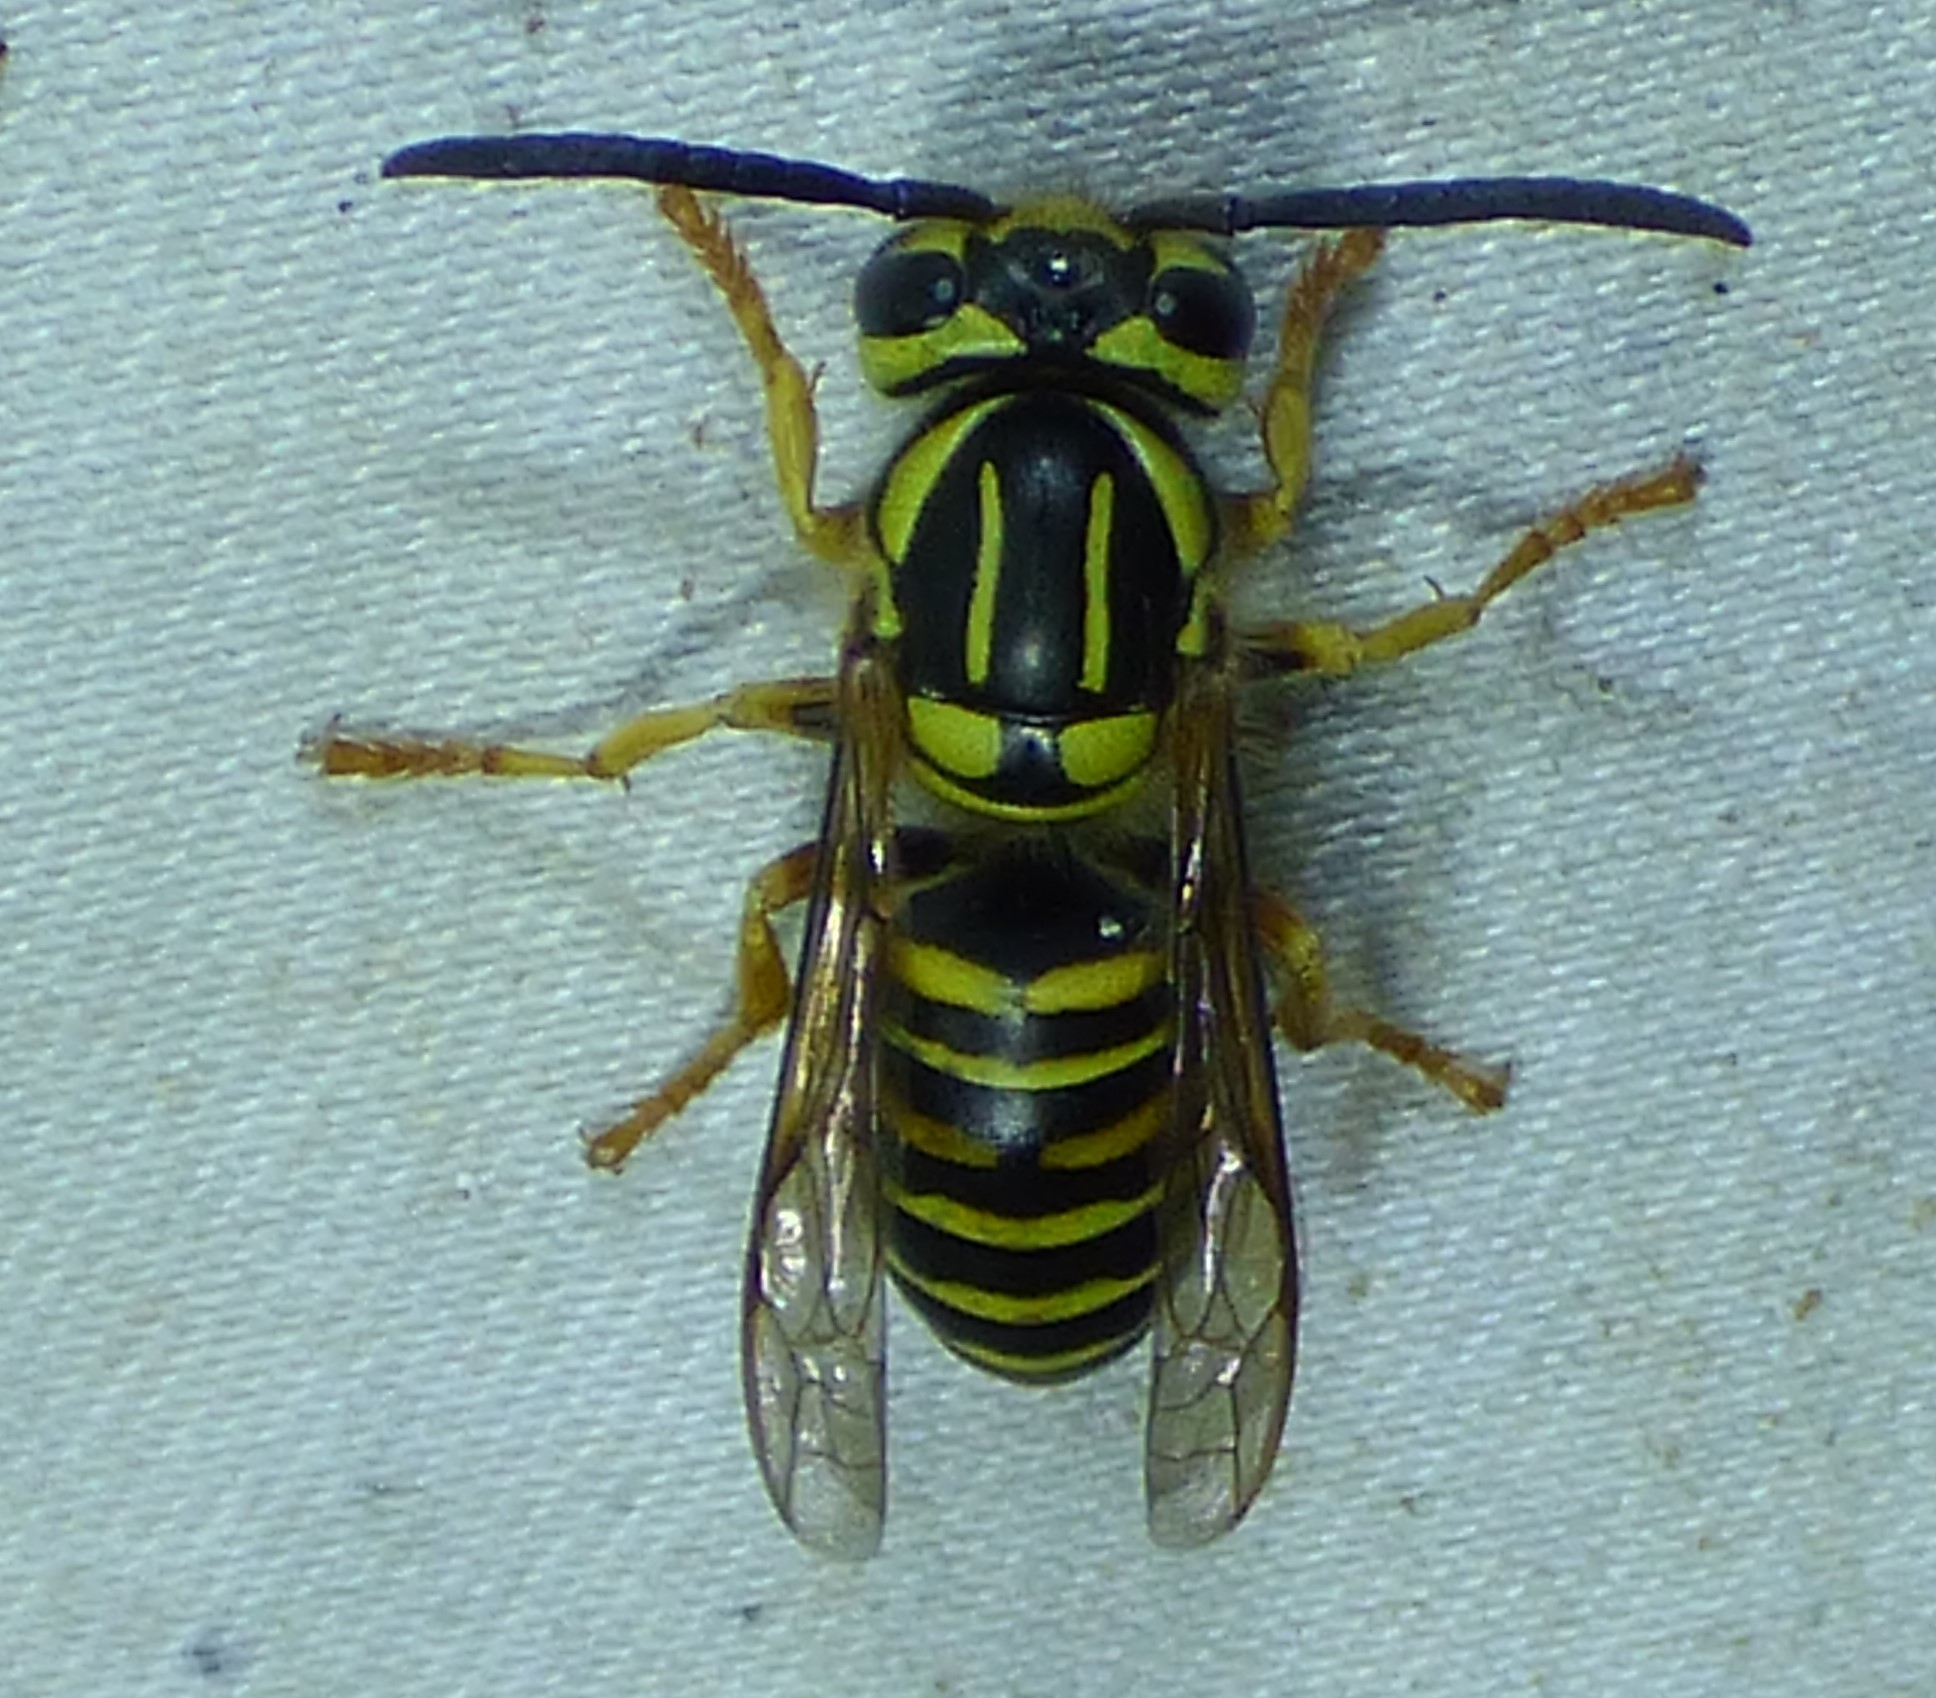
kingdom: Animalia
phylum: Arthropoda
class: Insecta
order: Hymenoptera
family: Vespidae
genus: Vespula
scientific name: Vespula squamosa
